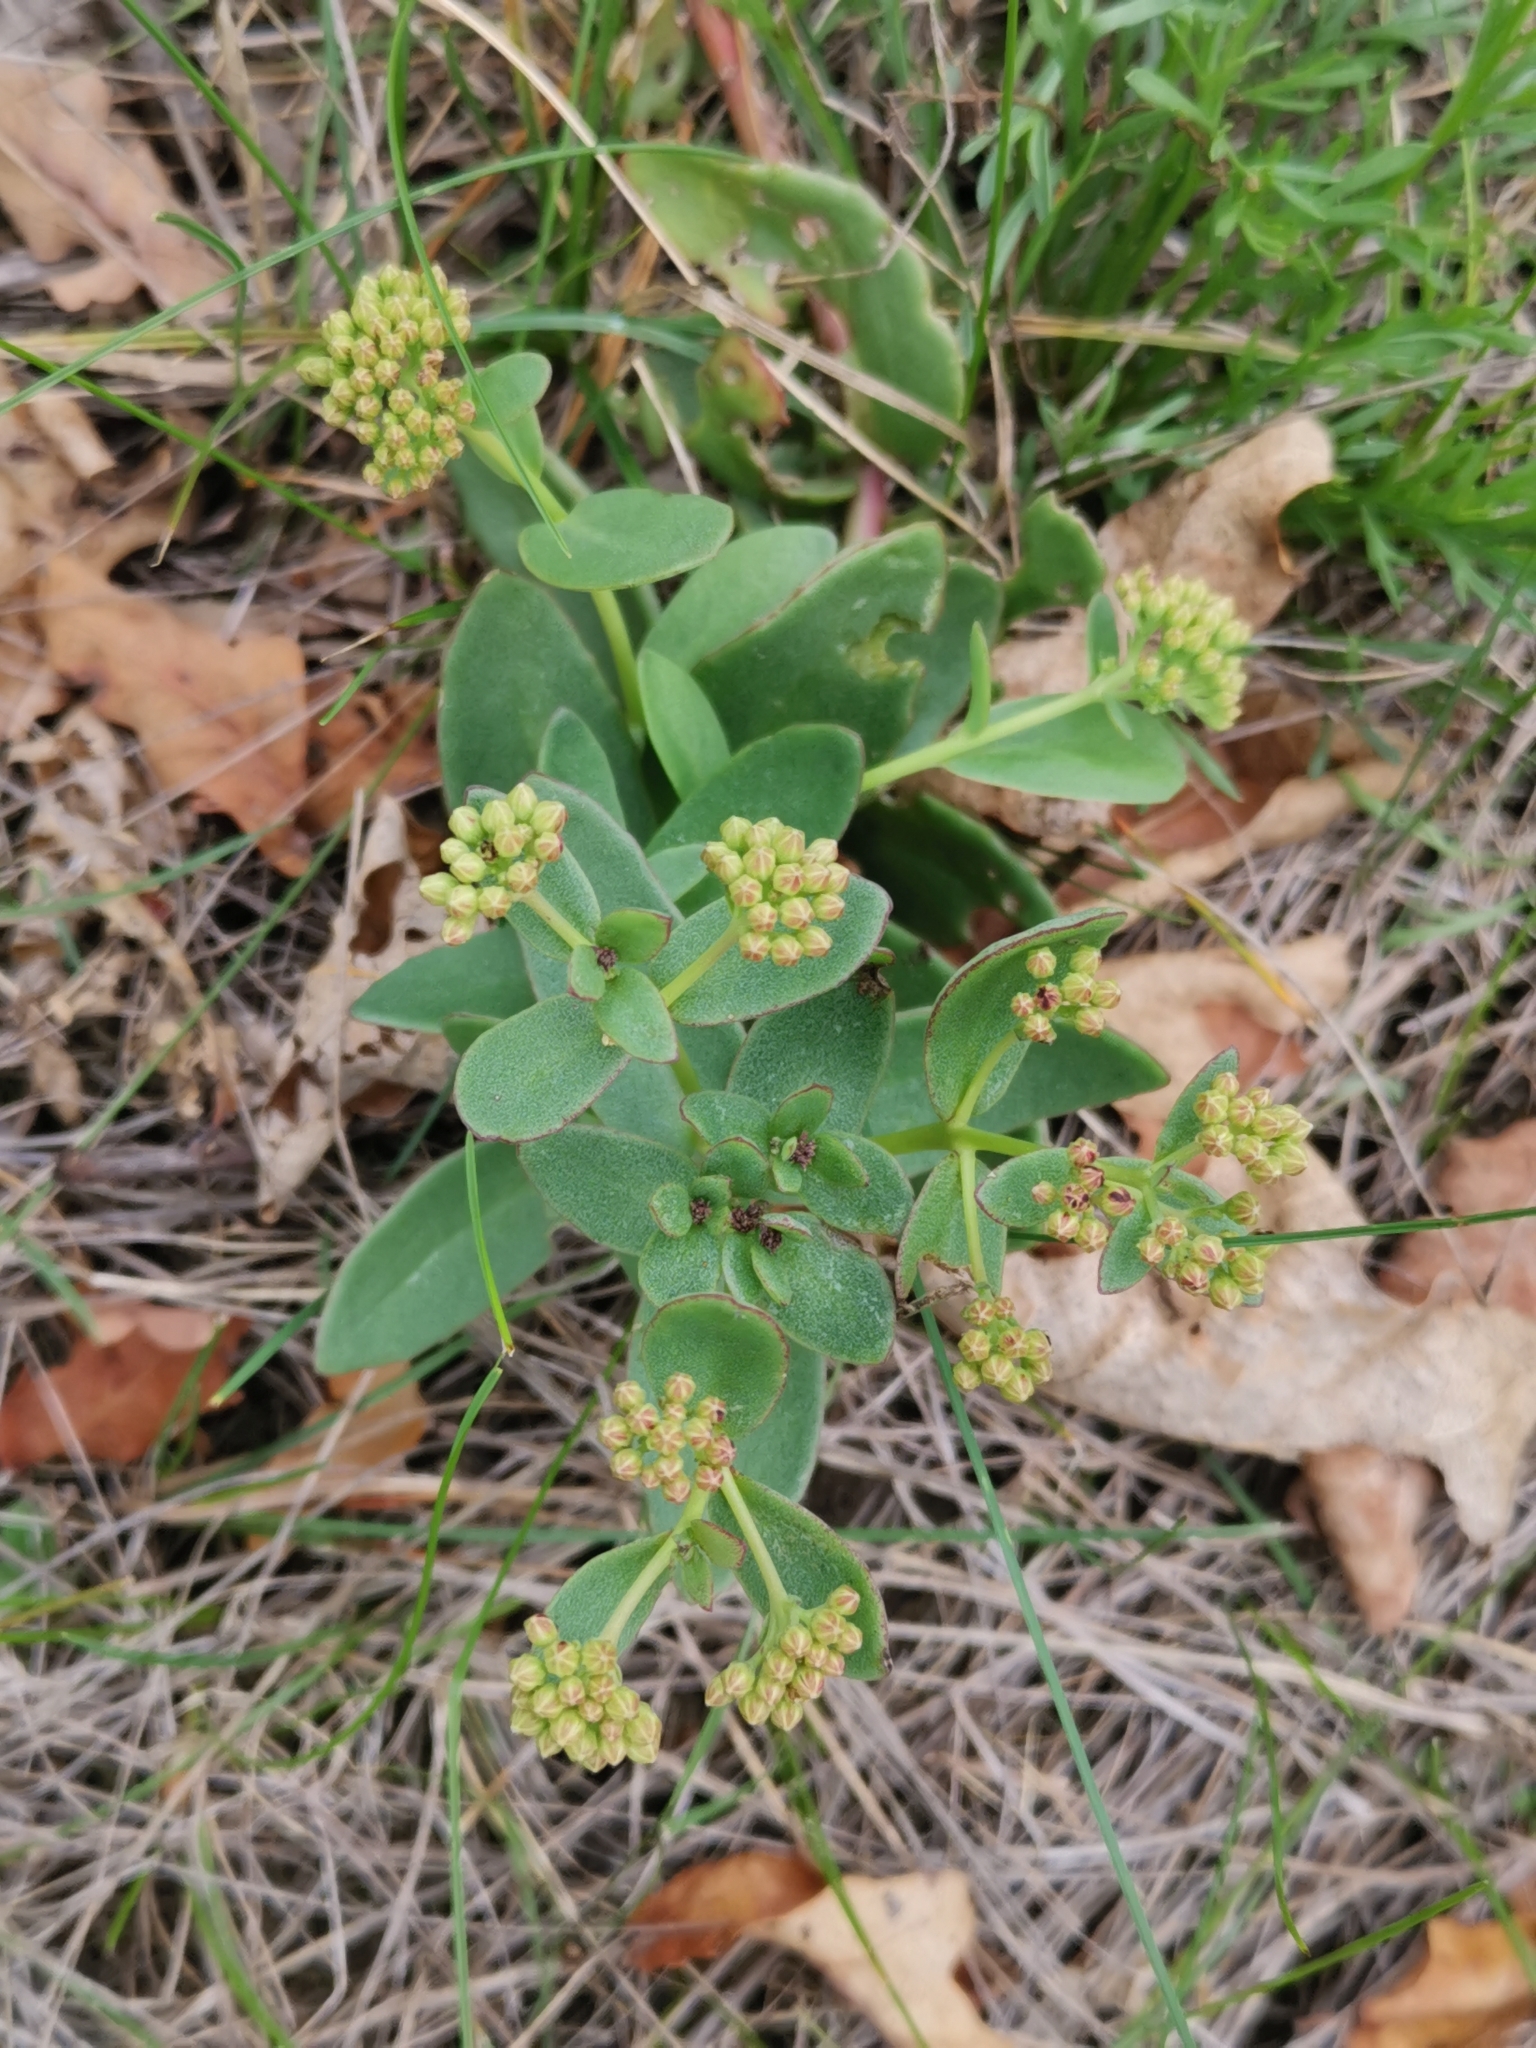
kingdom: Plantae
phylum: Tracheophyta
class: Magnoliopsida
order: Saxifragales
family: Crassulaceae
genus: Hylotelephium
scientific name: Hylotelephium maximum
